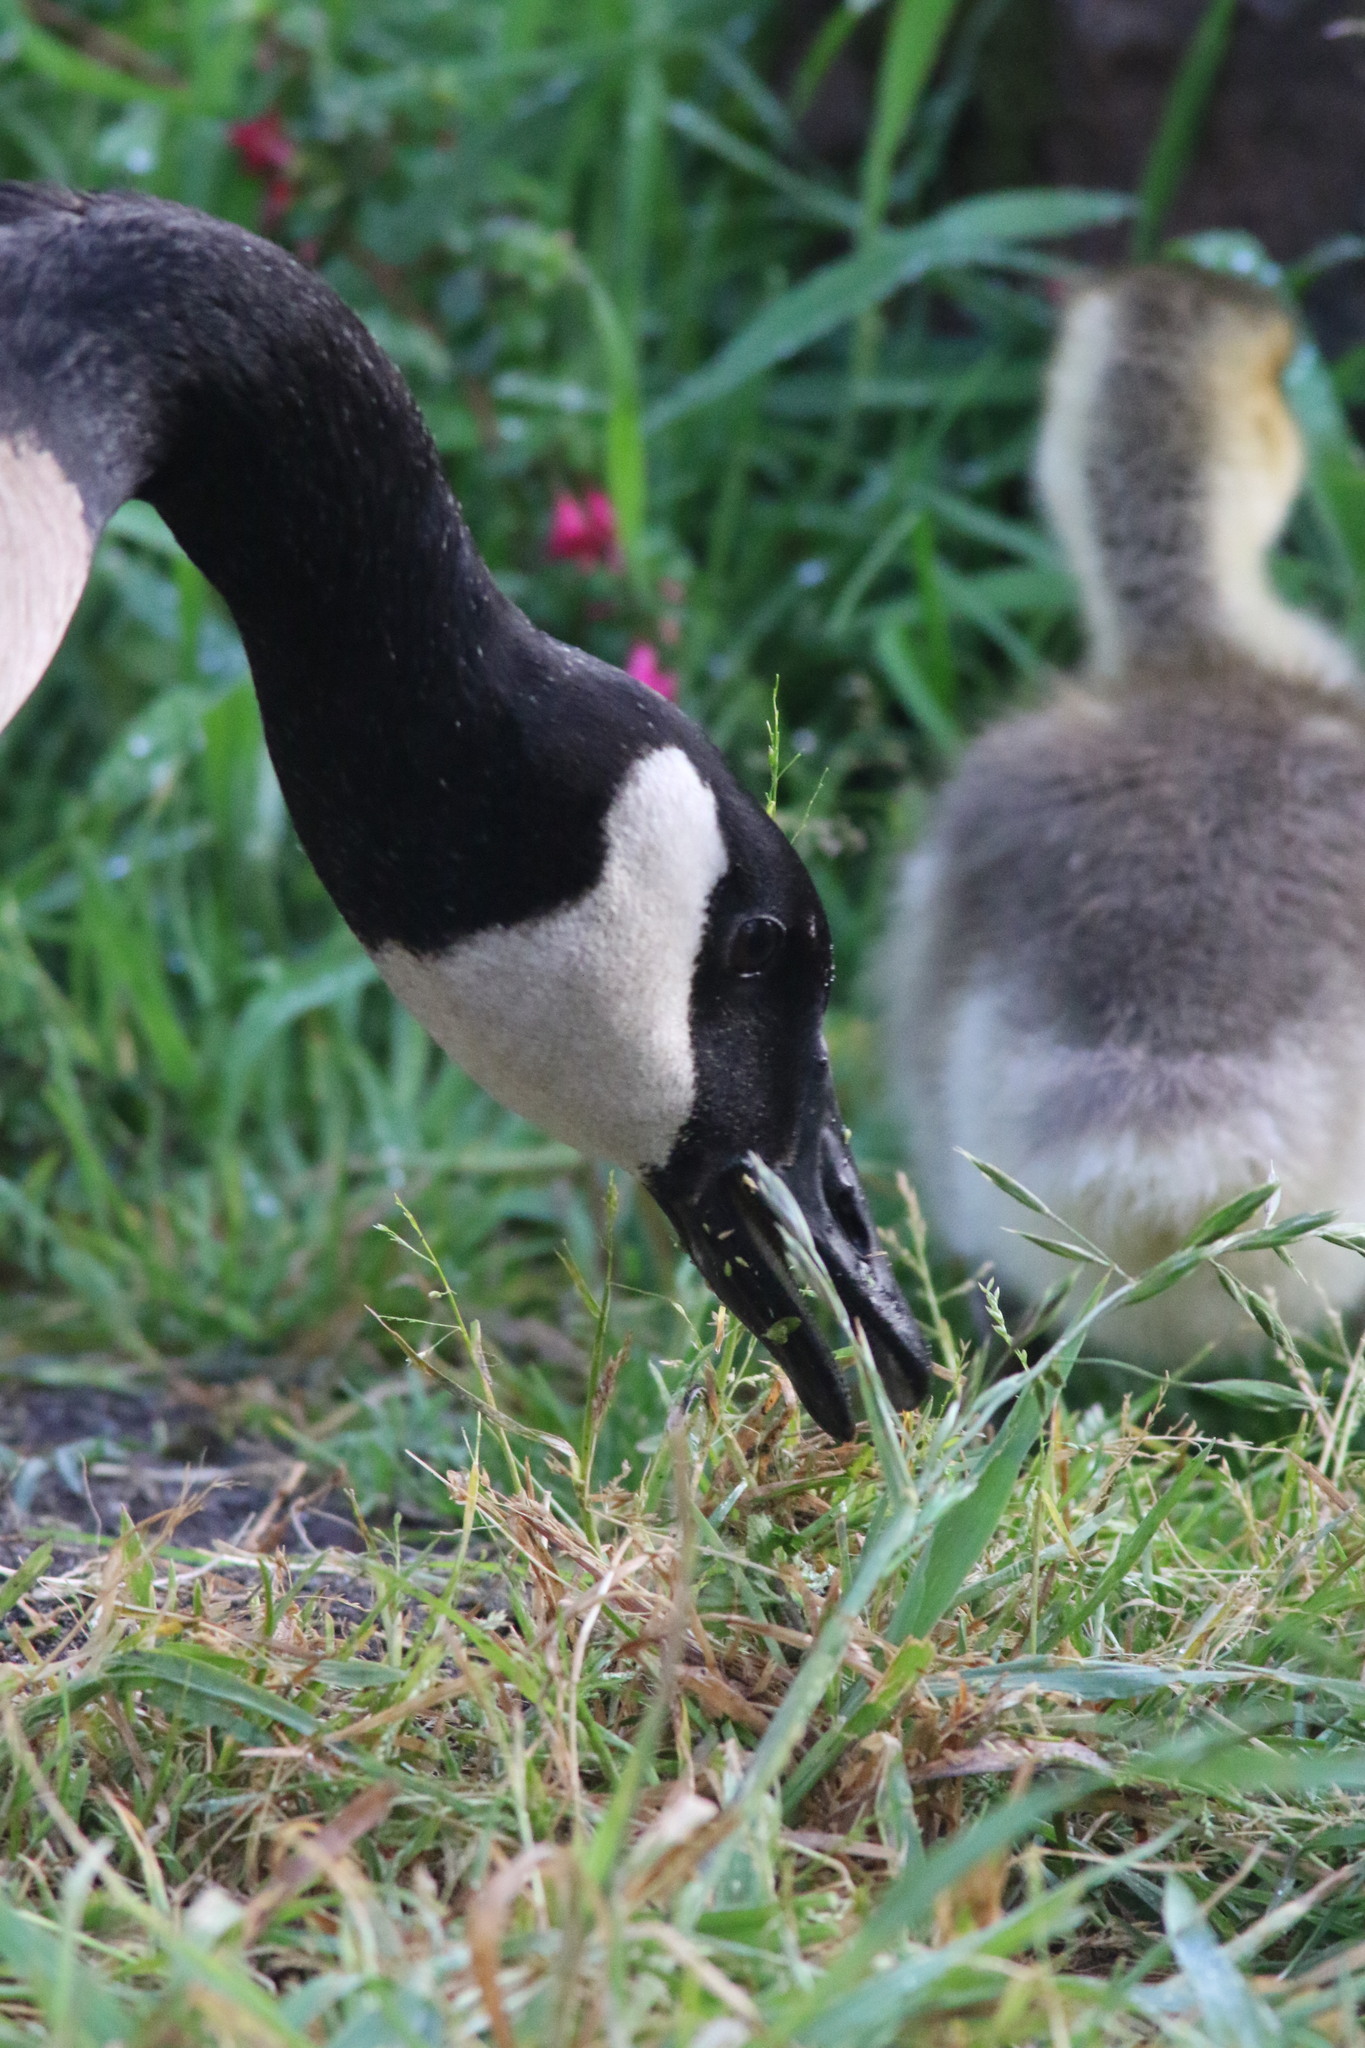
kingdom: Animalia
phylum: Chordata
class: Aves
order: Anseriformes
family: Anatidae
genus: Branta
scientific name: Branta canadensis
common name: Canada goose
